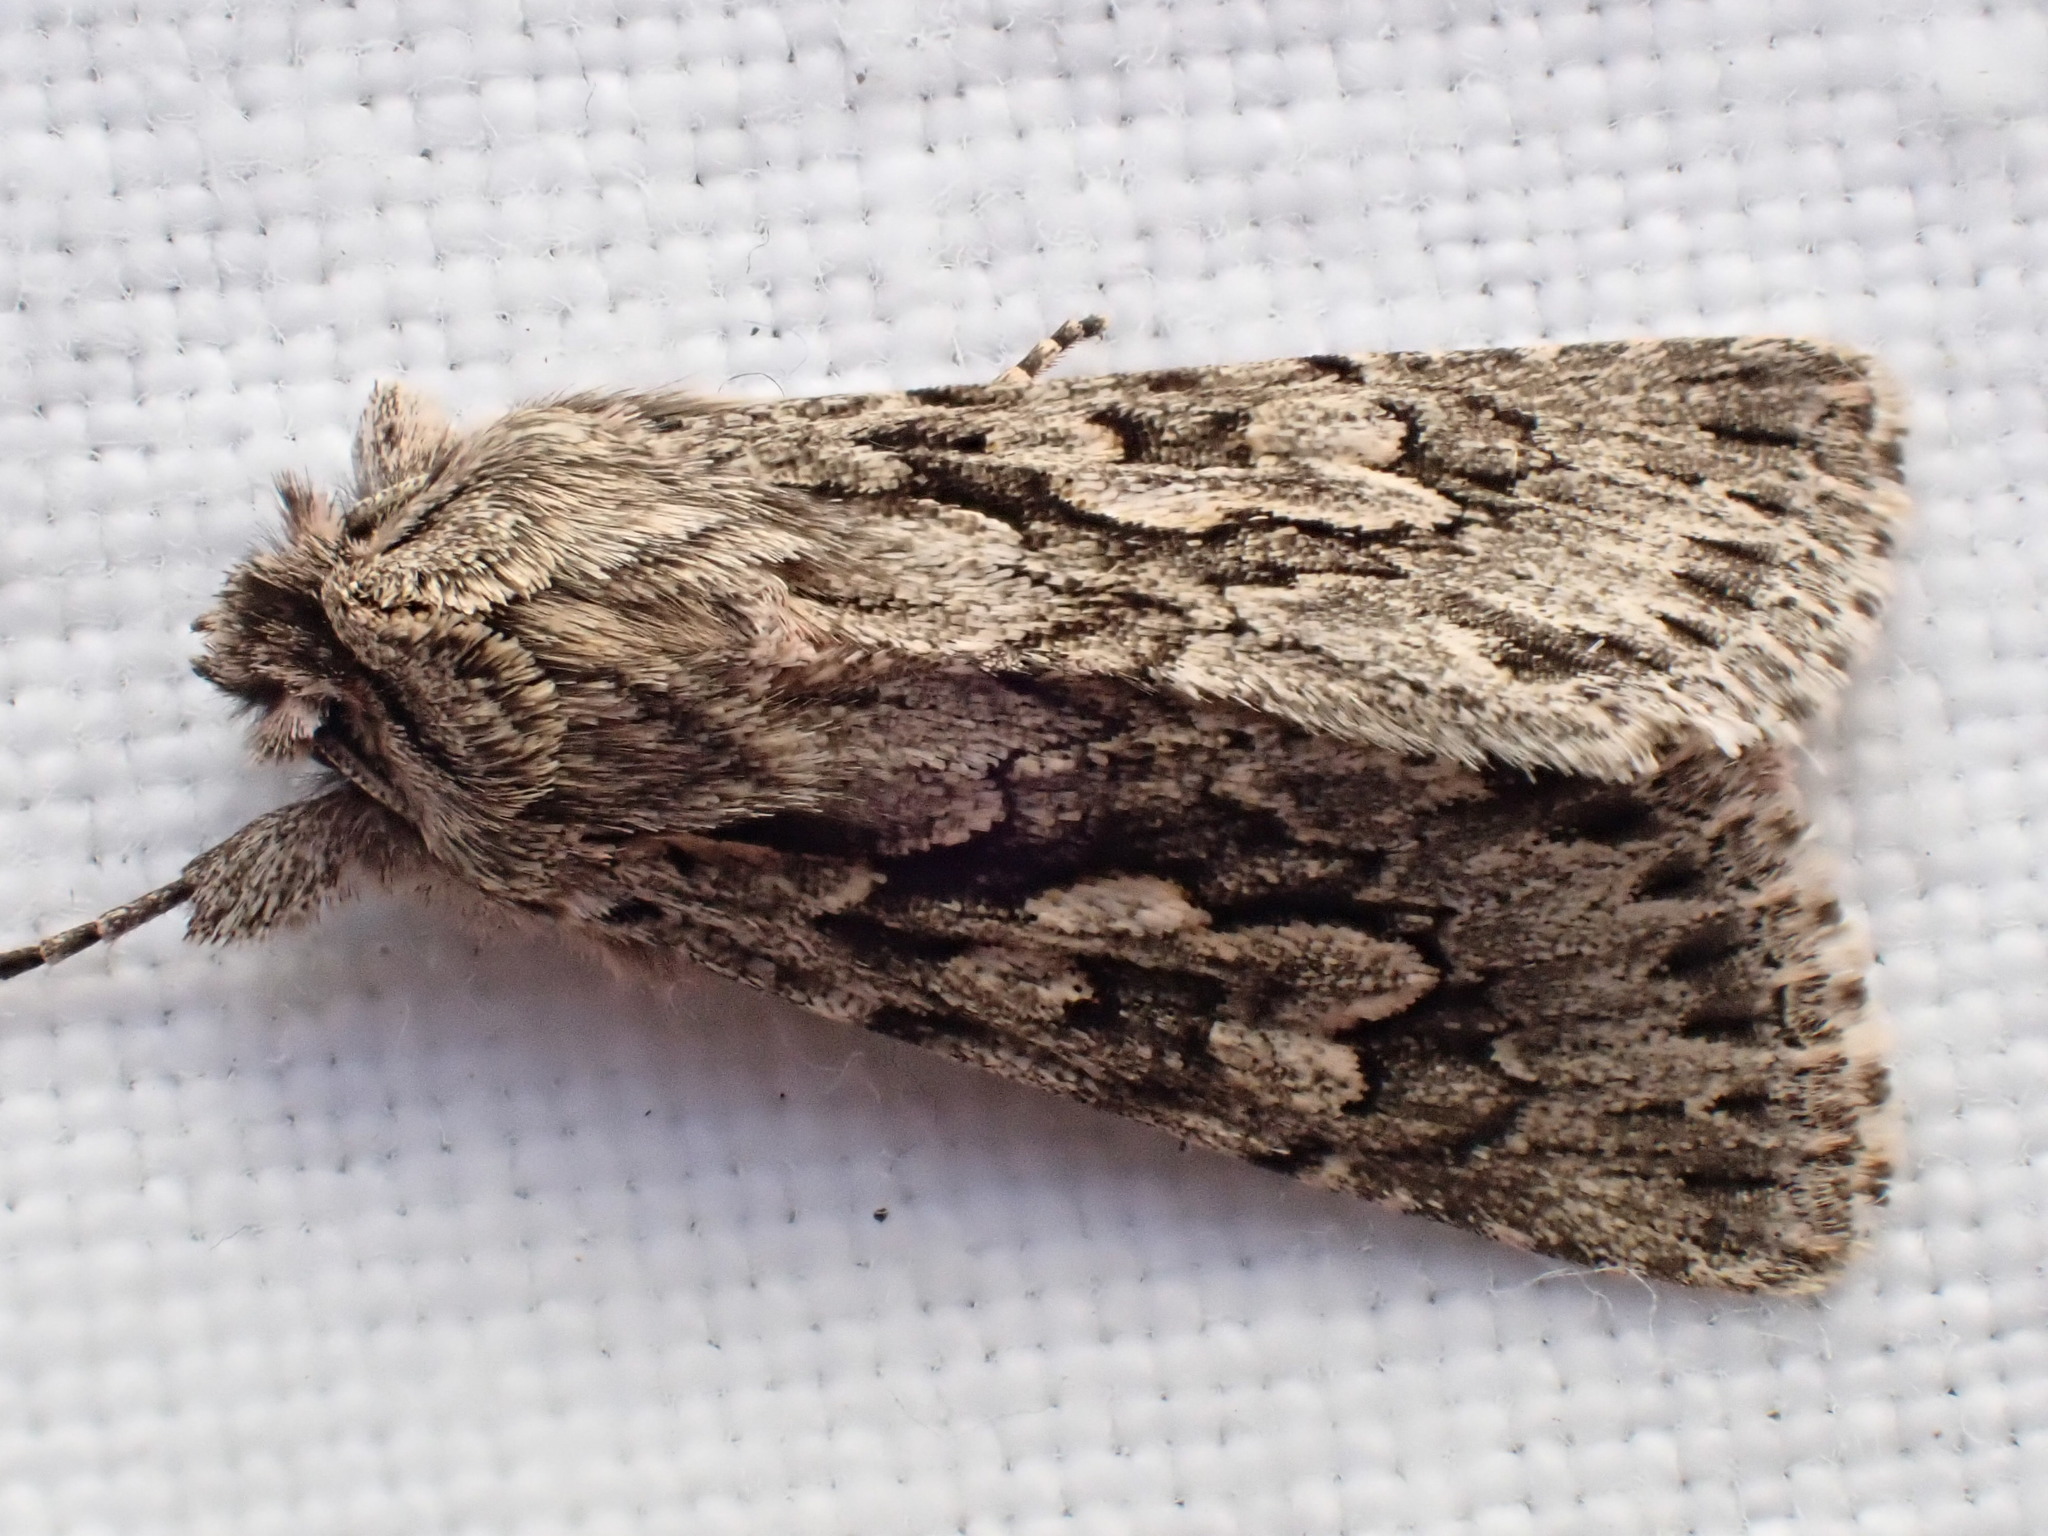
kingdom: Animalia
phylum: Arthropoda
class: Insecta
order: Lepidoptera
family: Noctuidae
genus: Xylocampa
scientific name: Xylocampa areola
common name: Early grey
